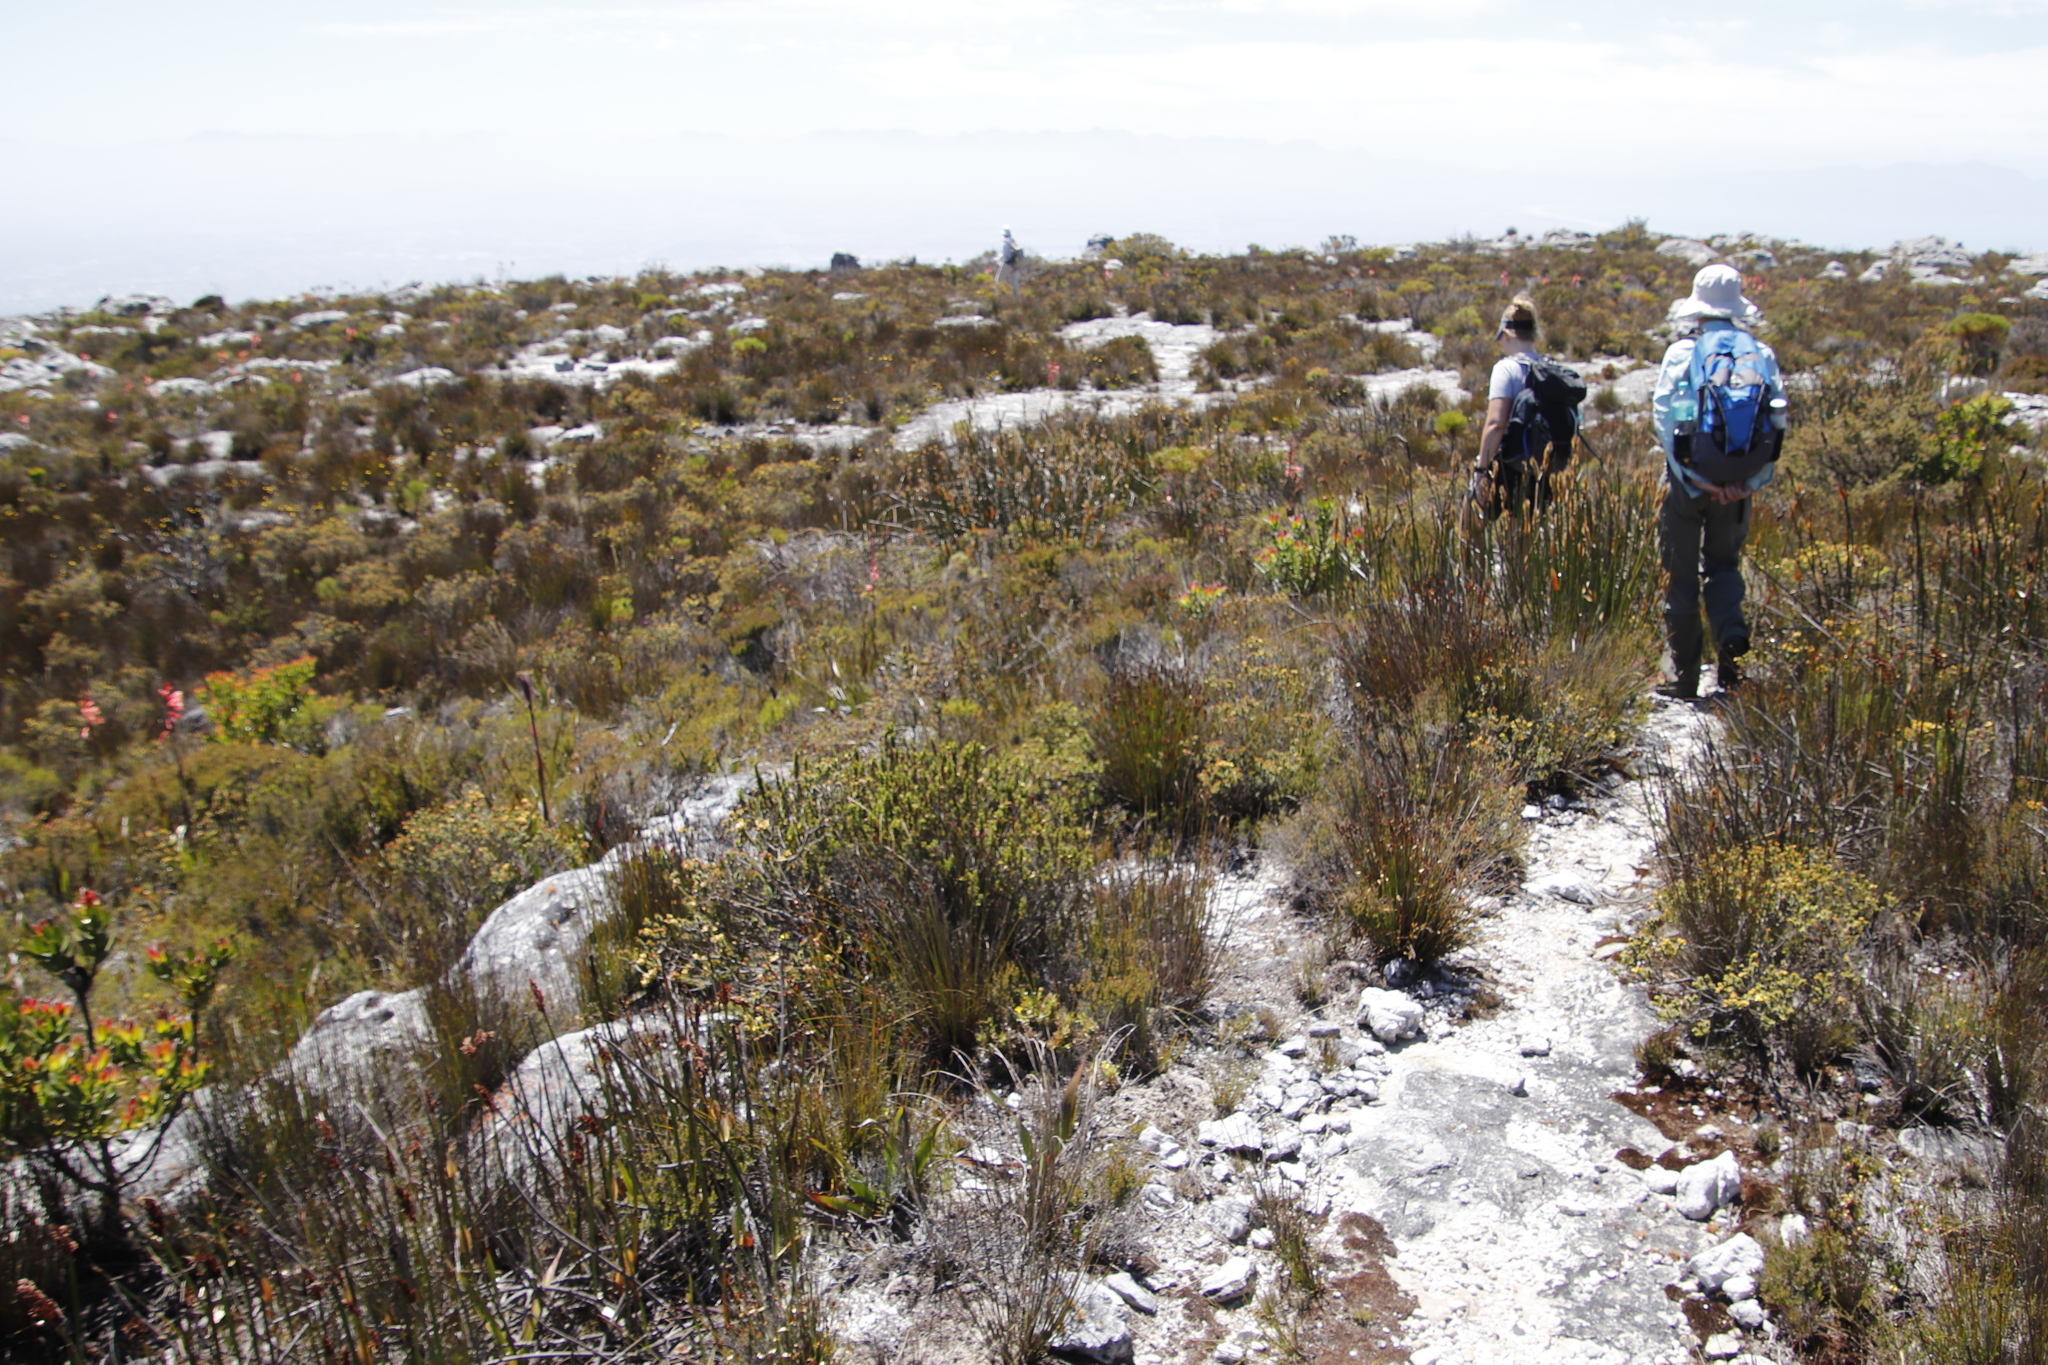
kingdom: Plantae
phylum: Tracheophyta
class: Magnoliopsida
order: Myrtales
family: Penaeaceae
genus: Penaea
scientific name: Penaea mucronata
